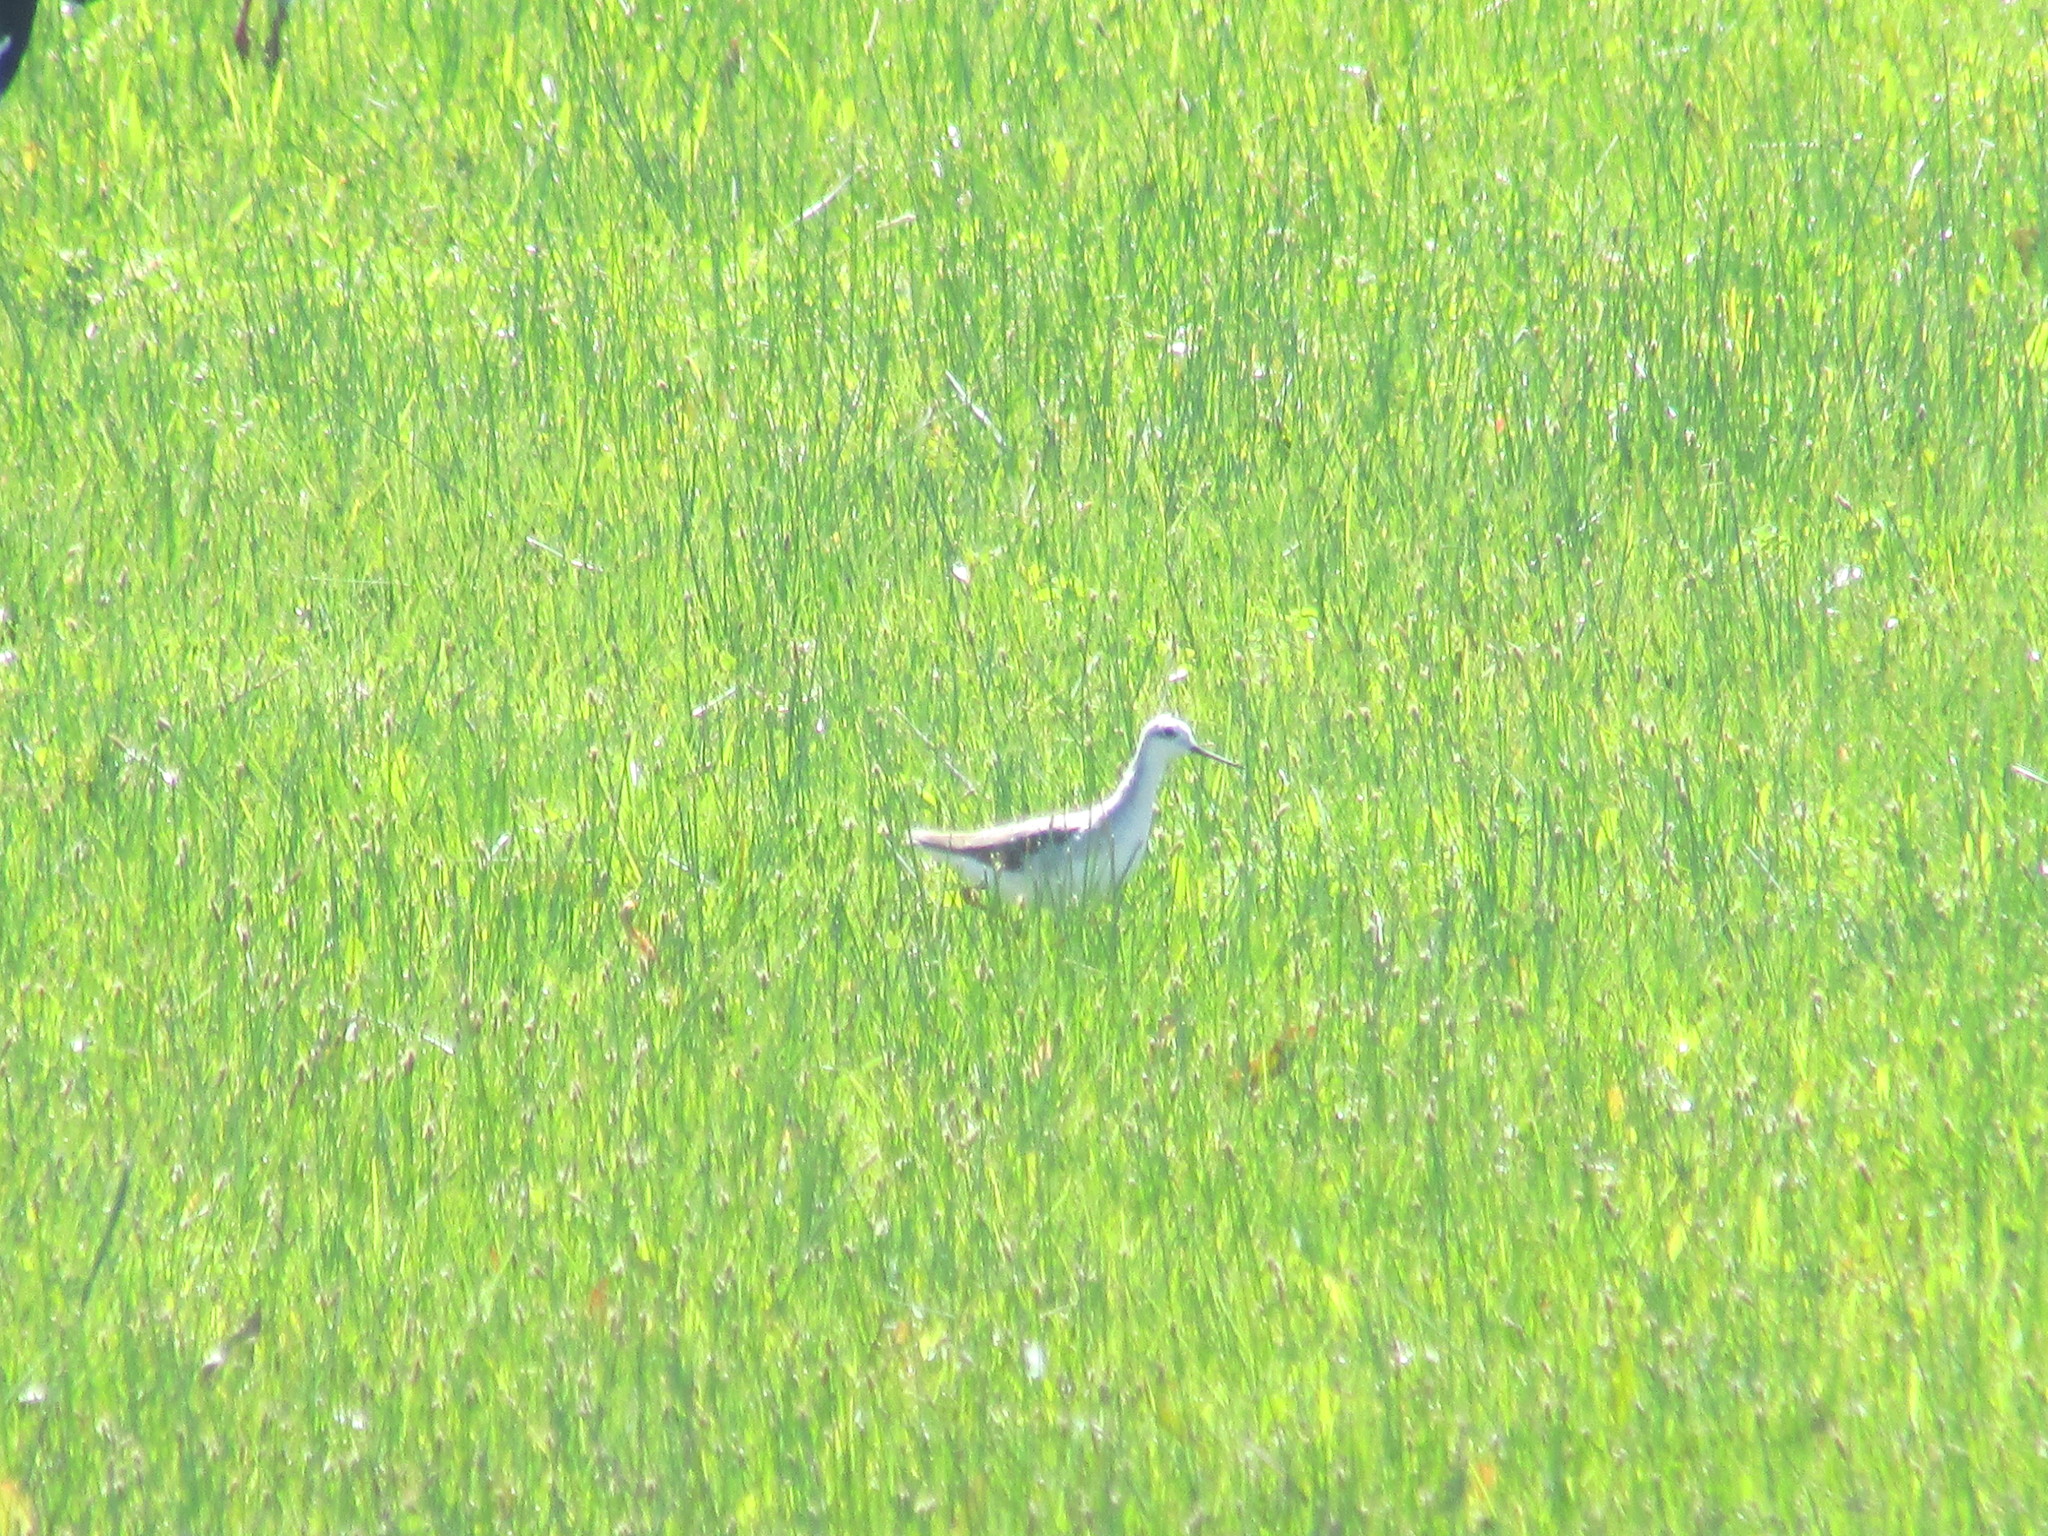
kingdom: Animalia
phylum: Chordata
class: Aves
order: Charadriiformes
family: Scolopacidae
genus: Phalaropus
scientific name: Phalaropus tricolor
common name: Wilson's phalarope
